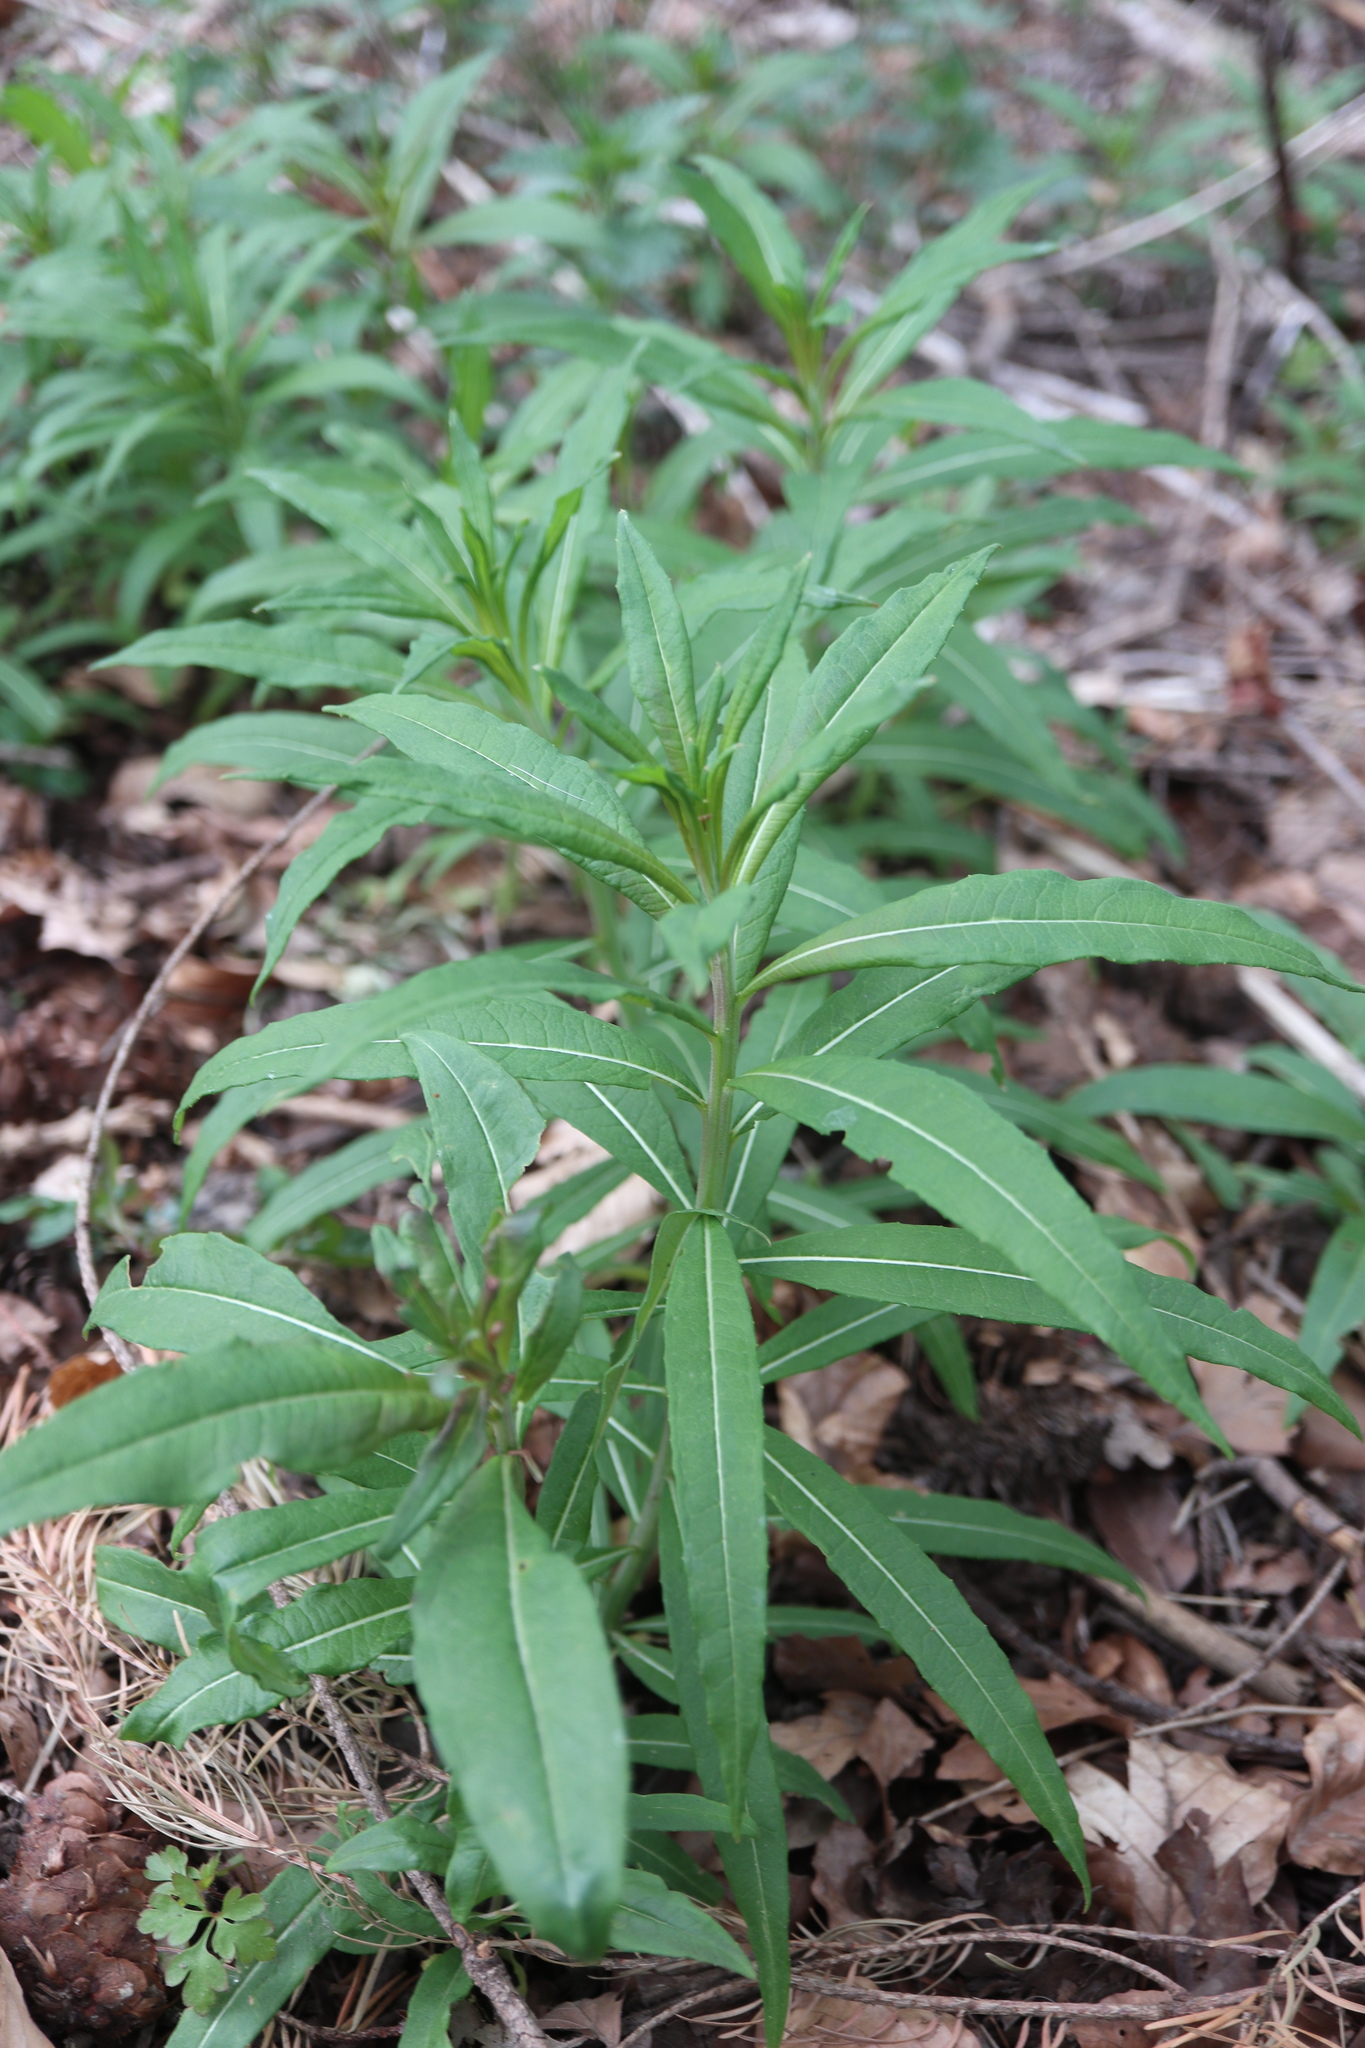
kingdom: Plantae
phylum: Tracheophyta
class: Magnoliopsida
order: Myrtales
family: Onagraceae
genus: Chamaenerion
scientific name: Chamaenerion angustifolium
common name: Fireweed
